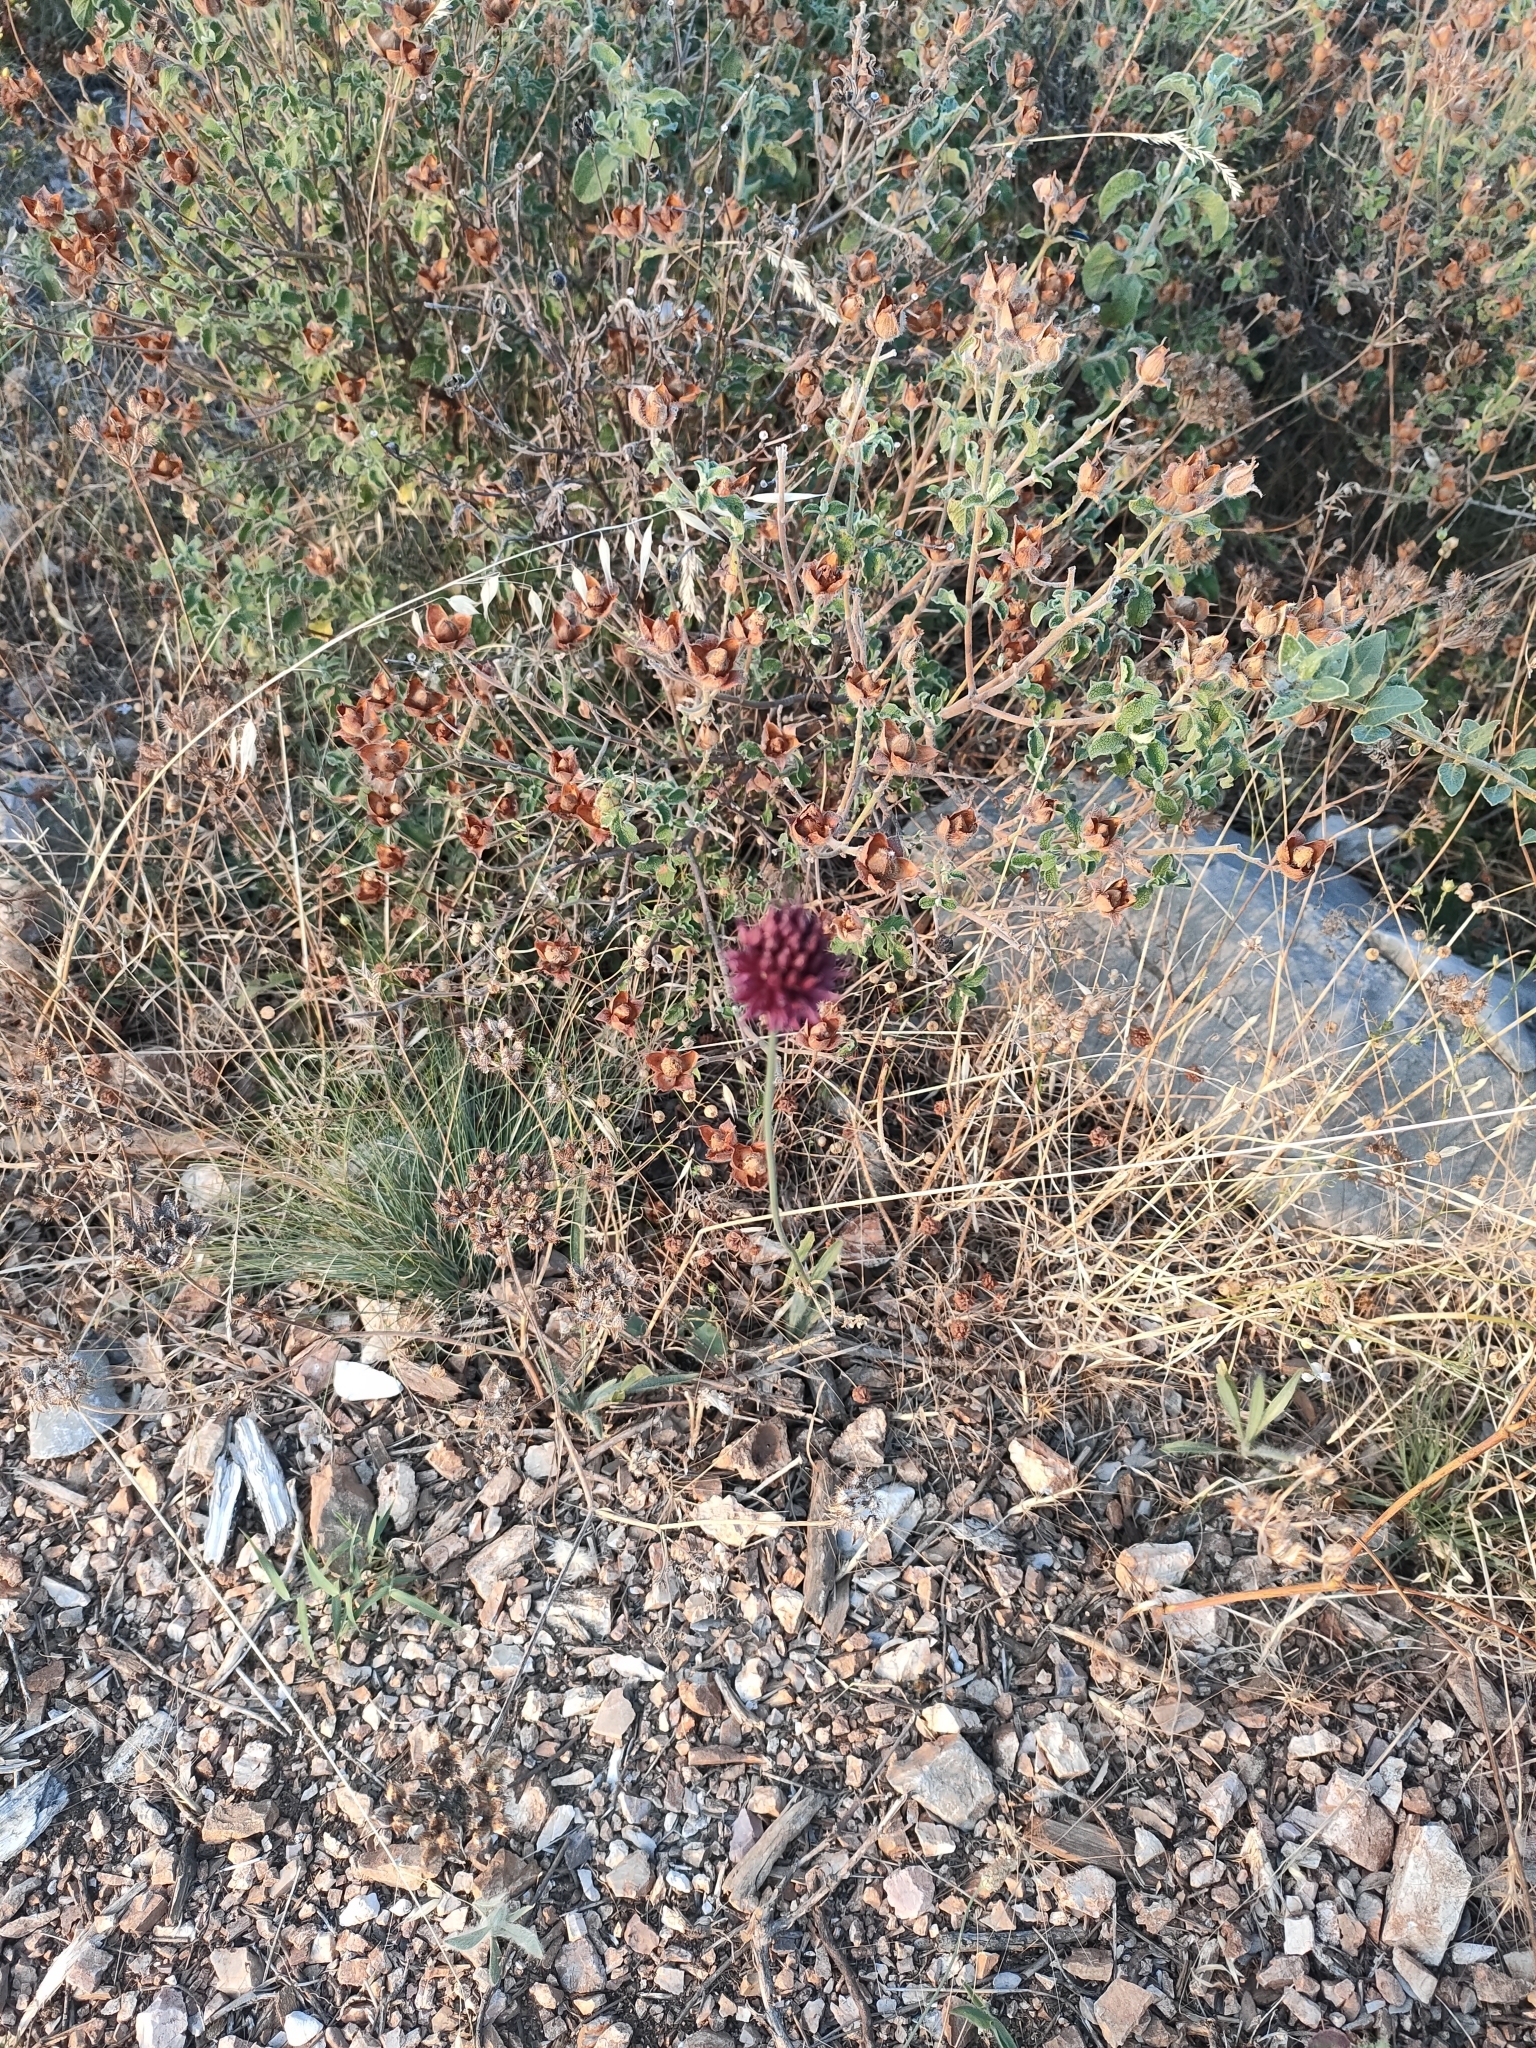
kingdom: Plantae
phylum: Tracheophyta
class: Liliopsida
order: Asparagales
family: Amaryllidaceae
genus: Allium
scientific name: Allium sphaerocephalon
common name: Round-headed leek
